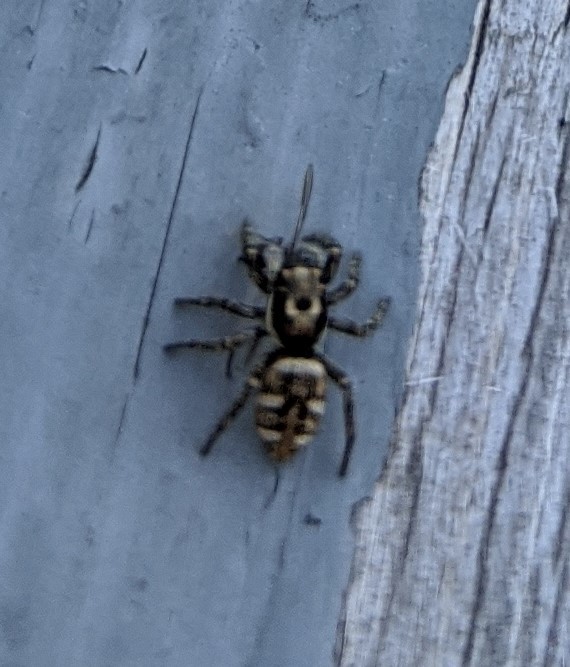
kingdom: Animalia
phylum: Arthropoda
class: Arachnida
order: Araneae
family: Salticidae
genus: Salticus
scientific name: Salticus scenicus
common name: Zebra jumper
